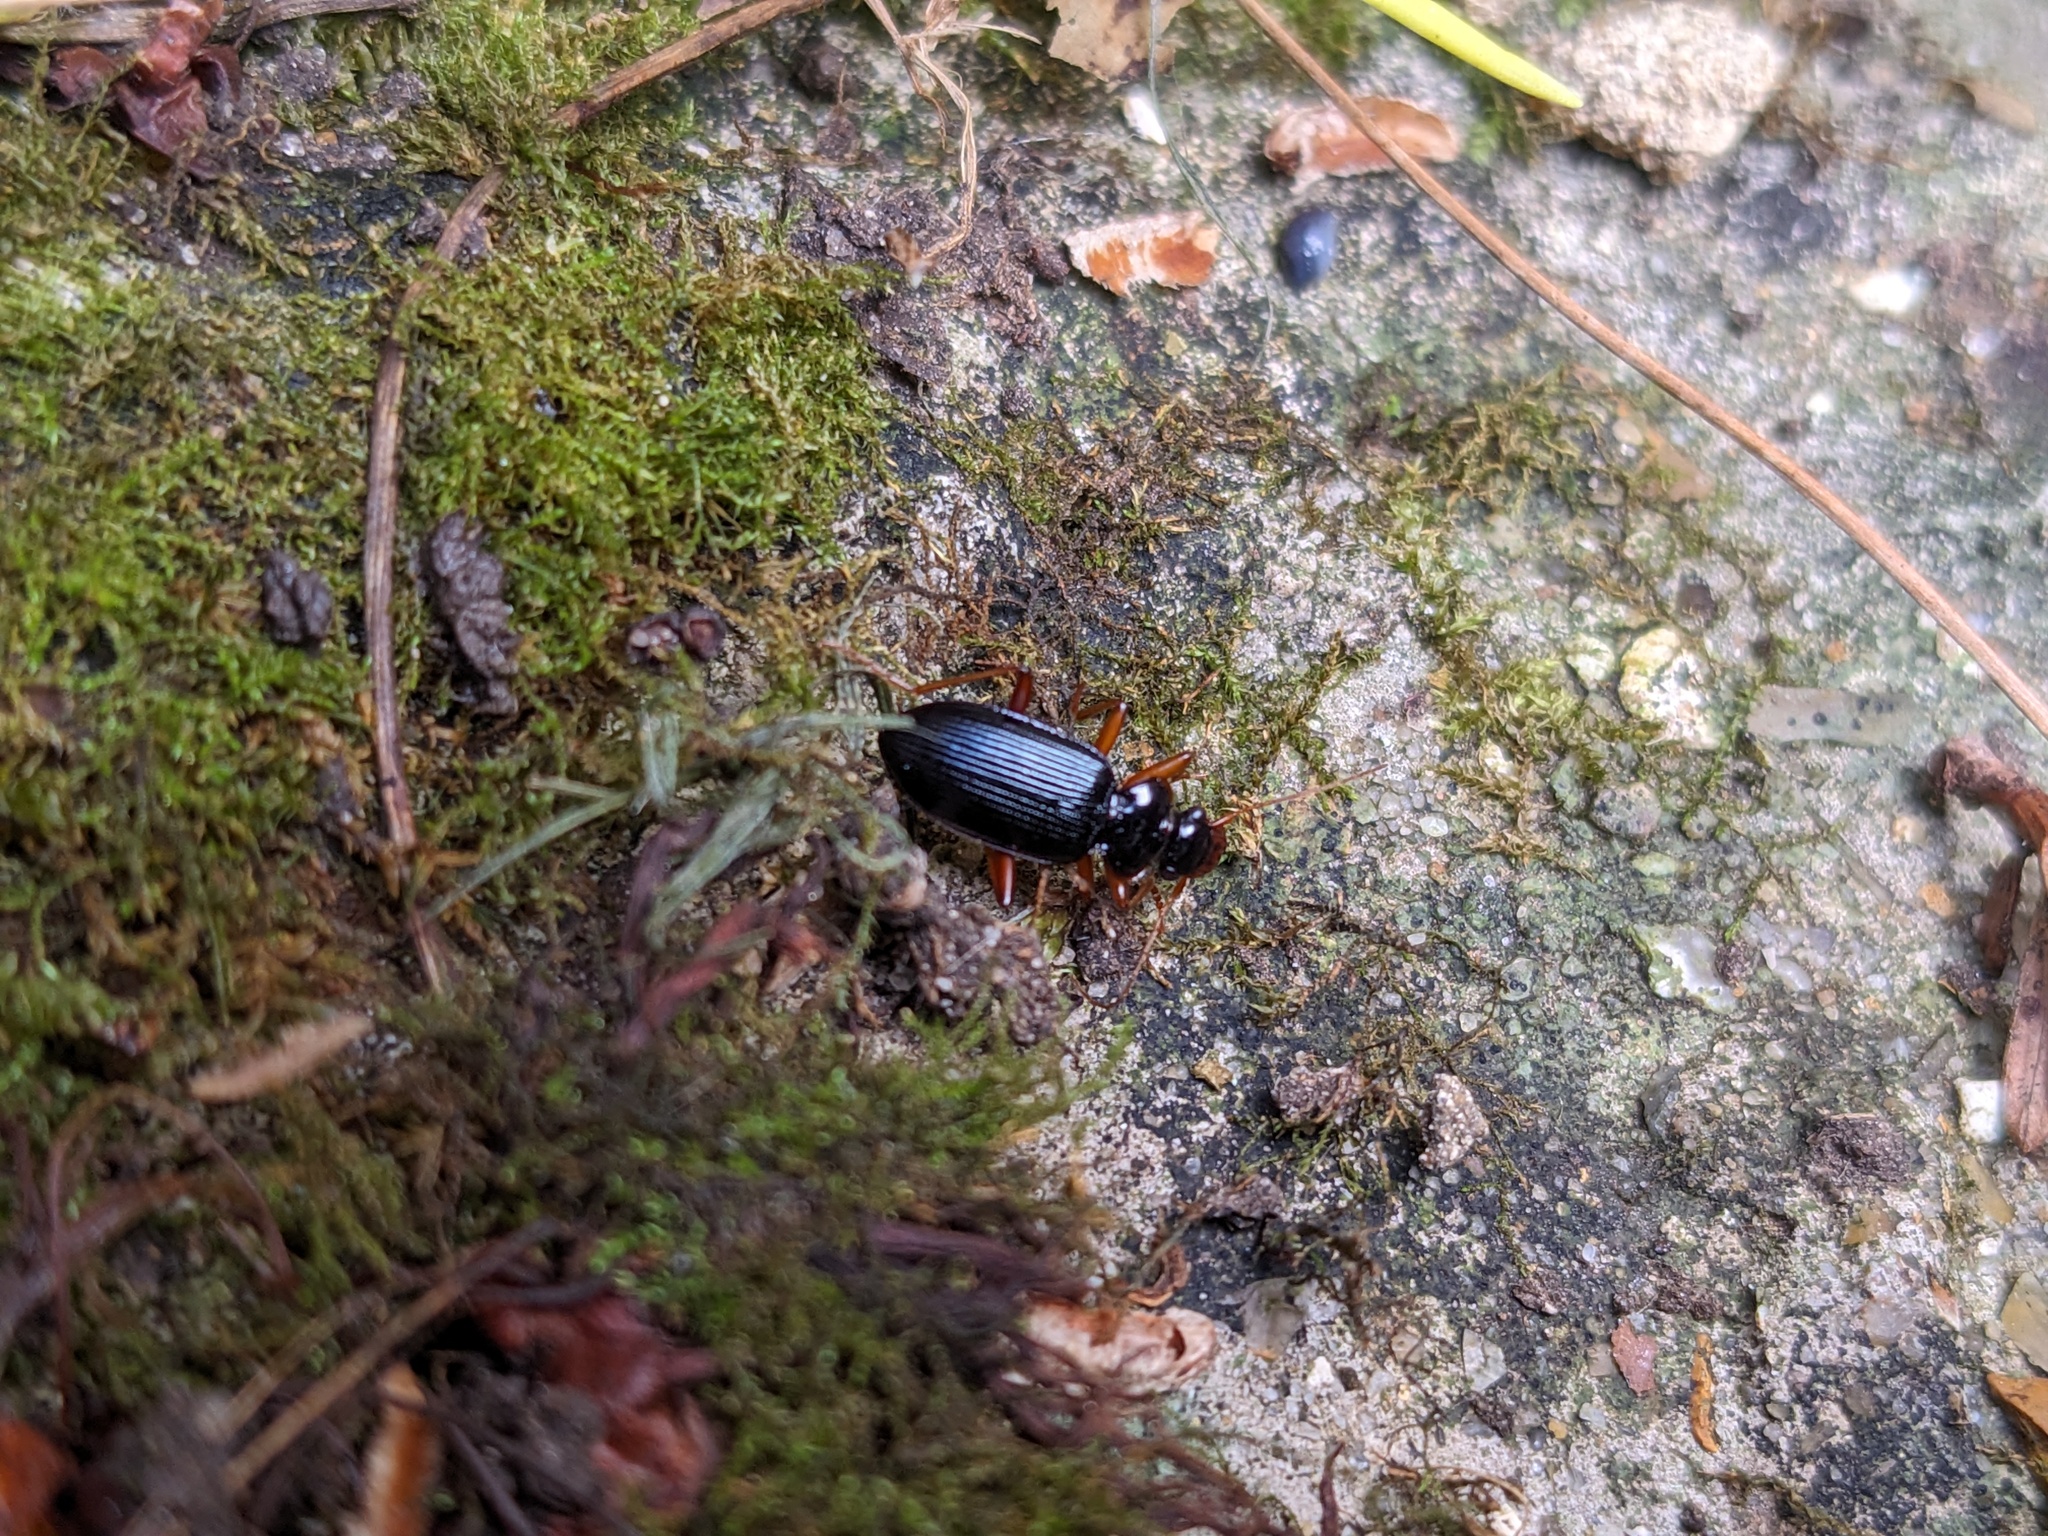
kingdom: Animalia
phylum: Arthropoda
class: Insecta
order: Coleoptera
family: Carabidae
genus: Leistus
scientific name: Leistus rufomarginatus
